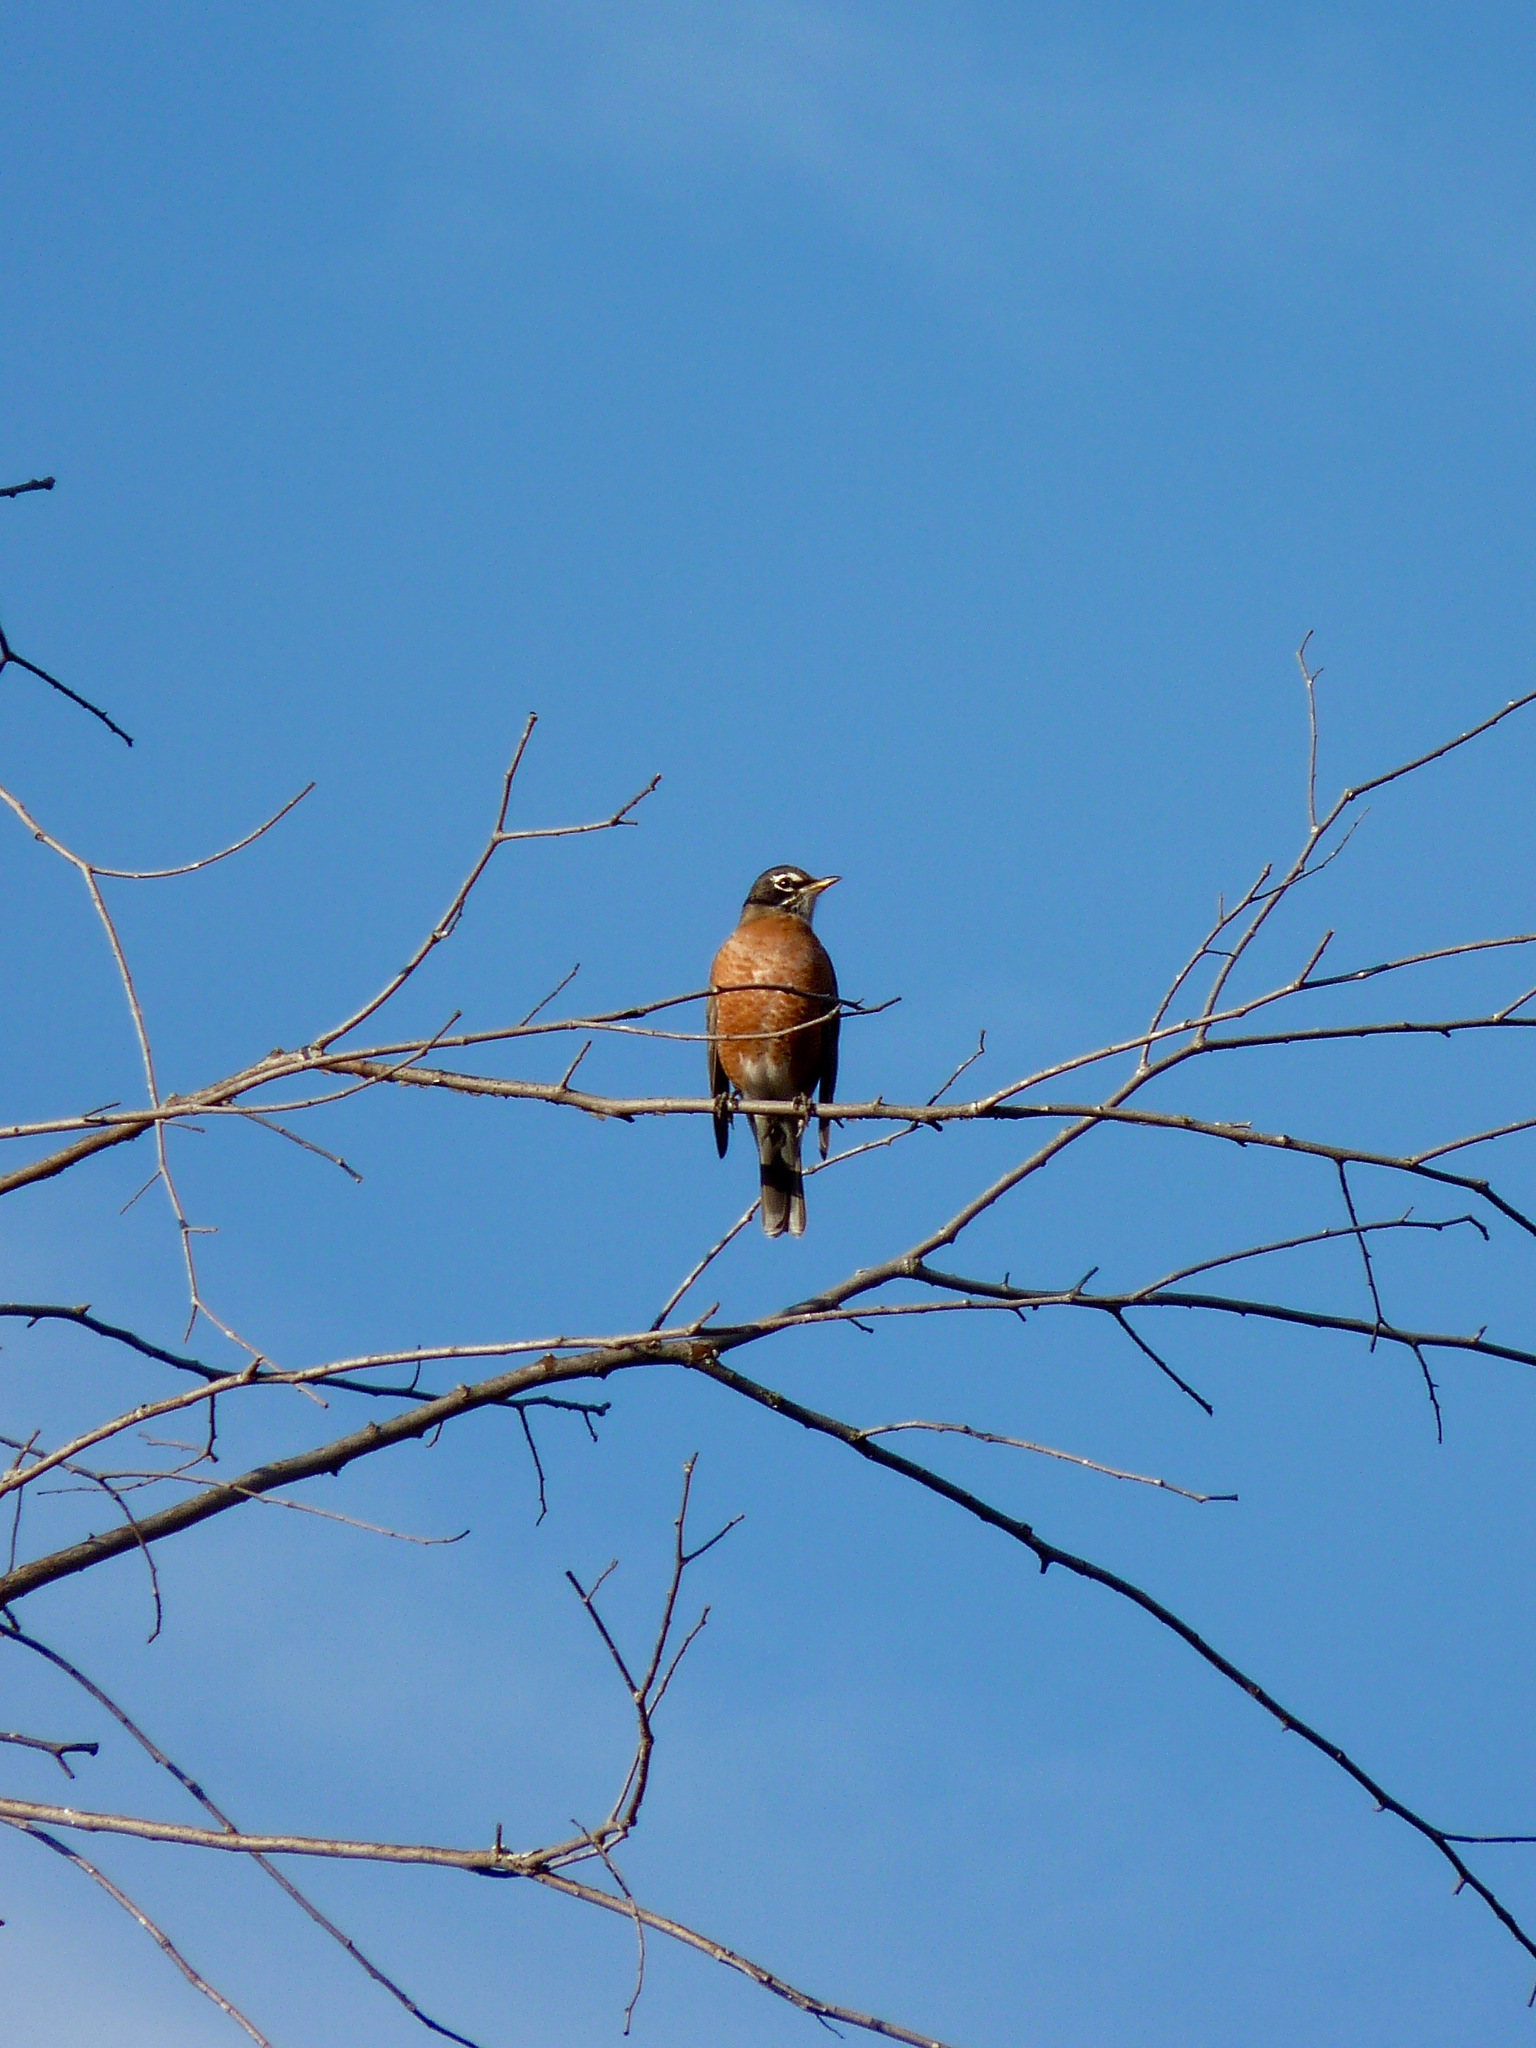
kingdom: Animalia
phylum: Chordata
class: Aves
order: Passeriformes
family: Turdidae
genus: Turdus
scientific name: Turdus migratorius
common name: American robin
